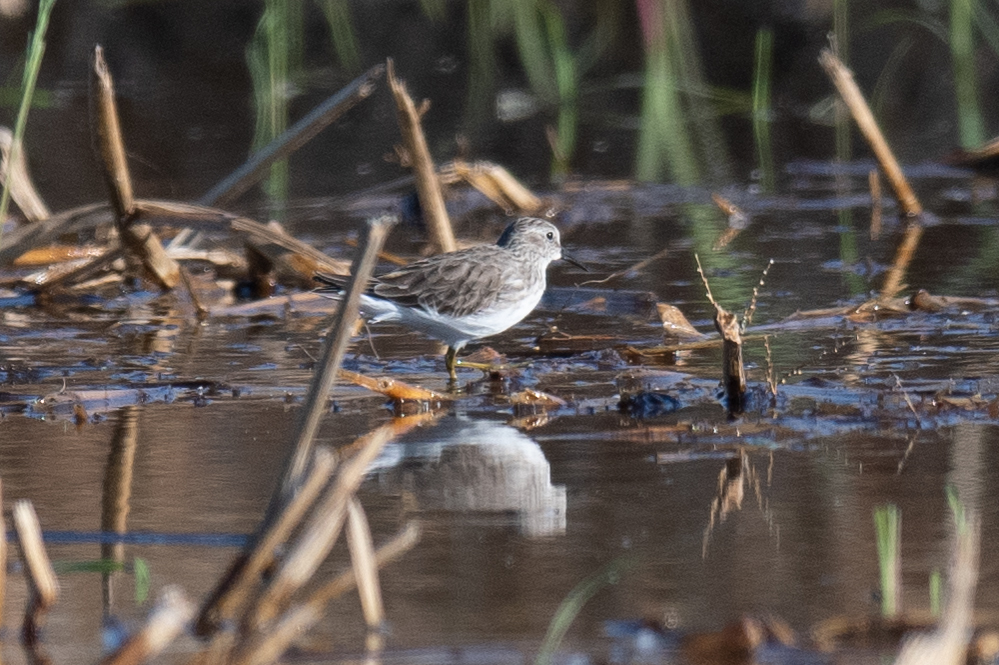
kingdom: Animalia
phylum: Chordata
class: Aves
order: Charadriiformes
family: Scolopacidae
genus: Calidris
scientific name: Calidris minutilla
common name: Least sandpiper
